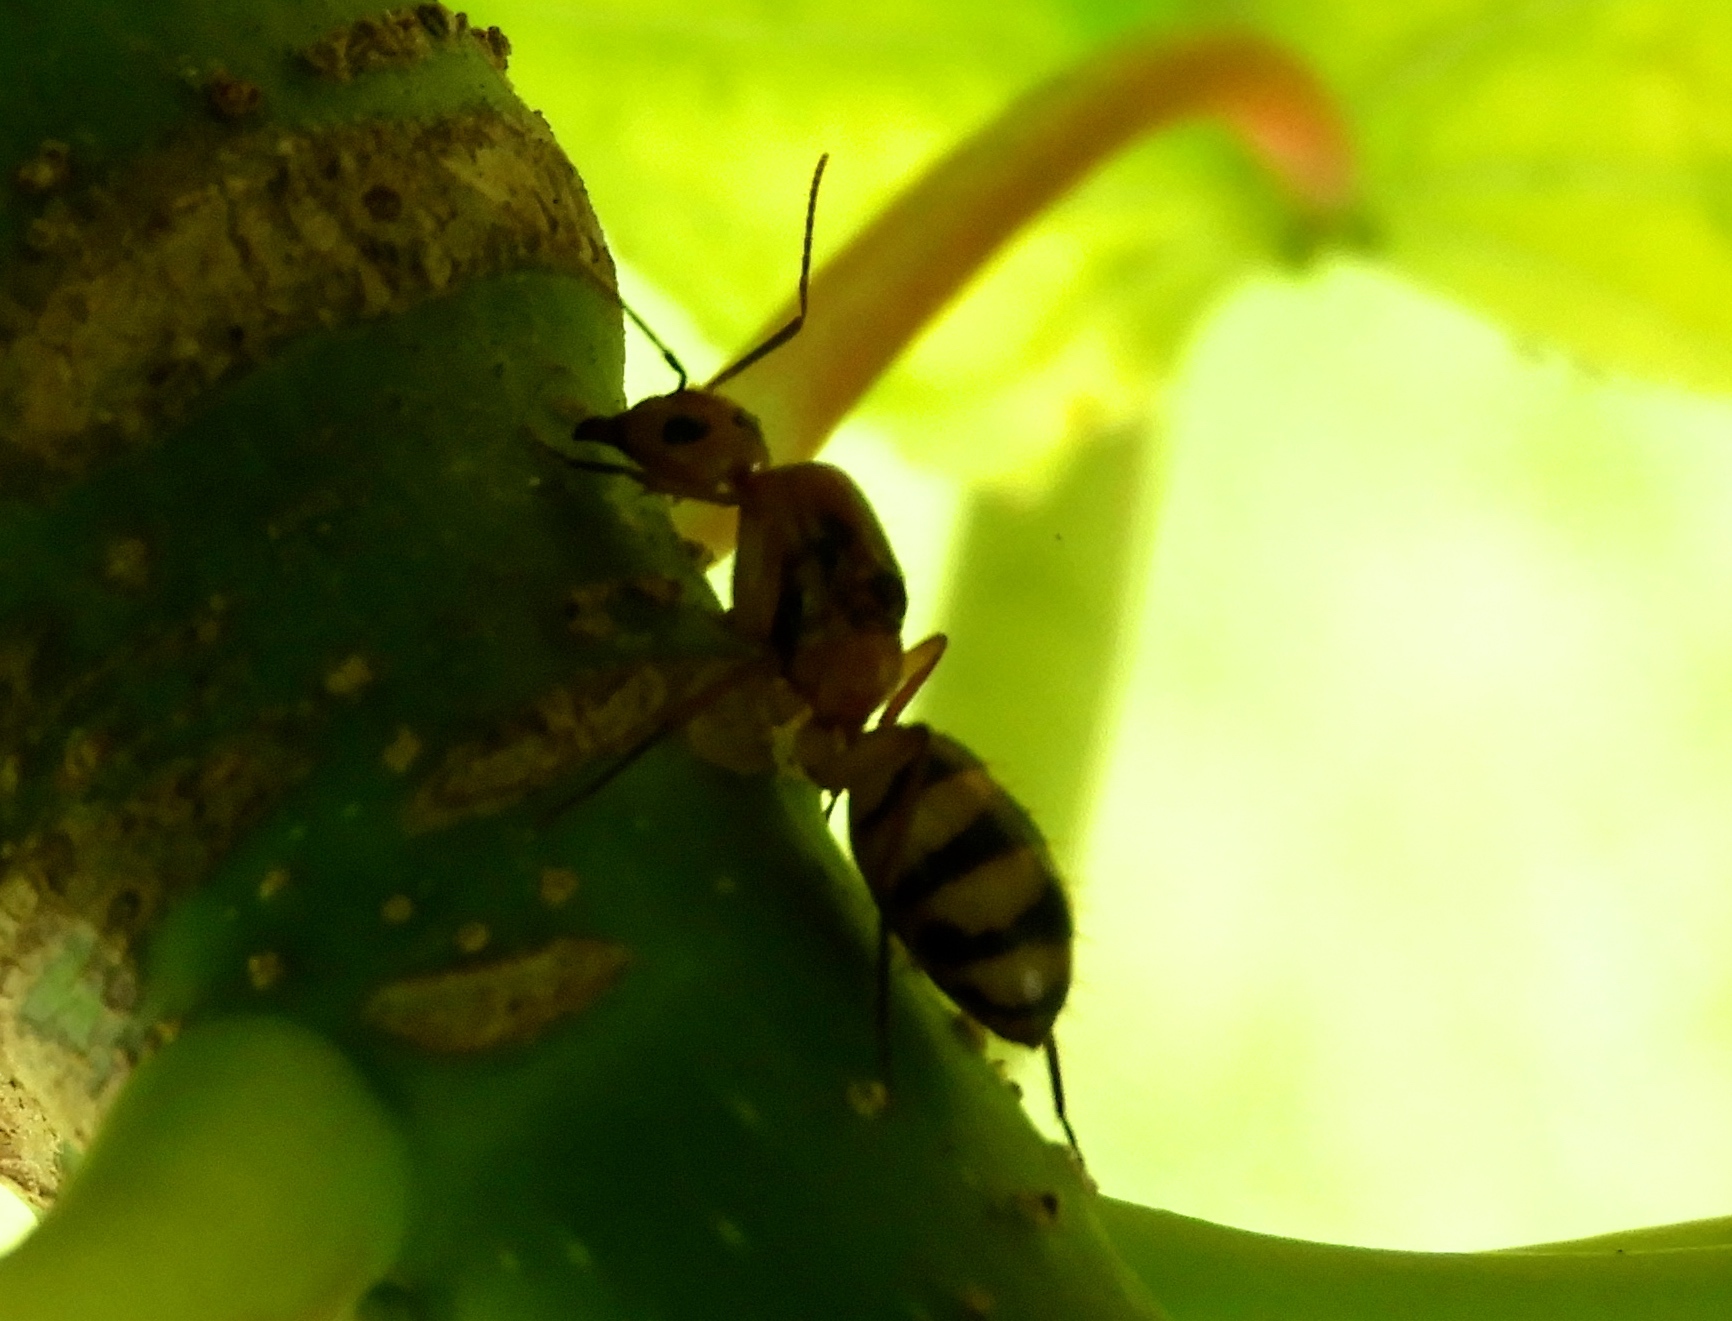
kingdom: Animalia
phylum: Arthropoda
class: Insecta
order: Hymenoptera
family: Formicidae
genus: Camponotus
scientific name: Camponotus
